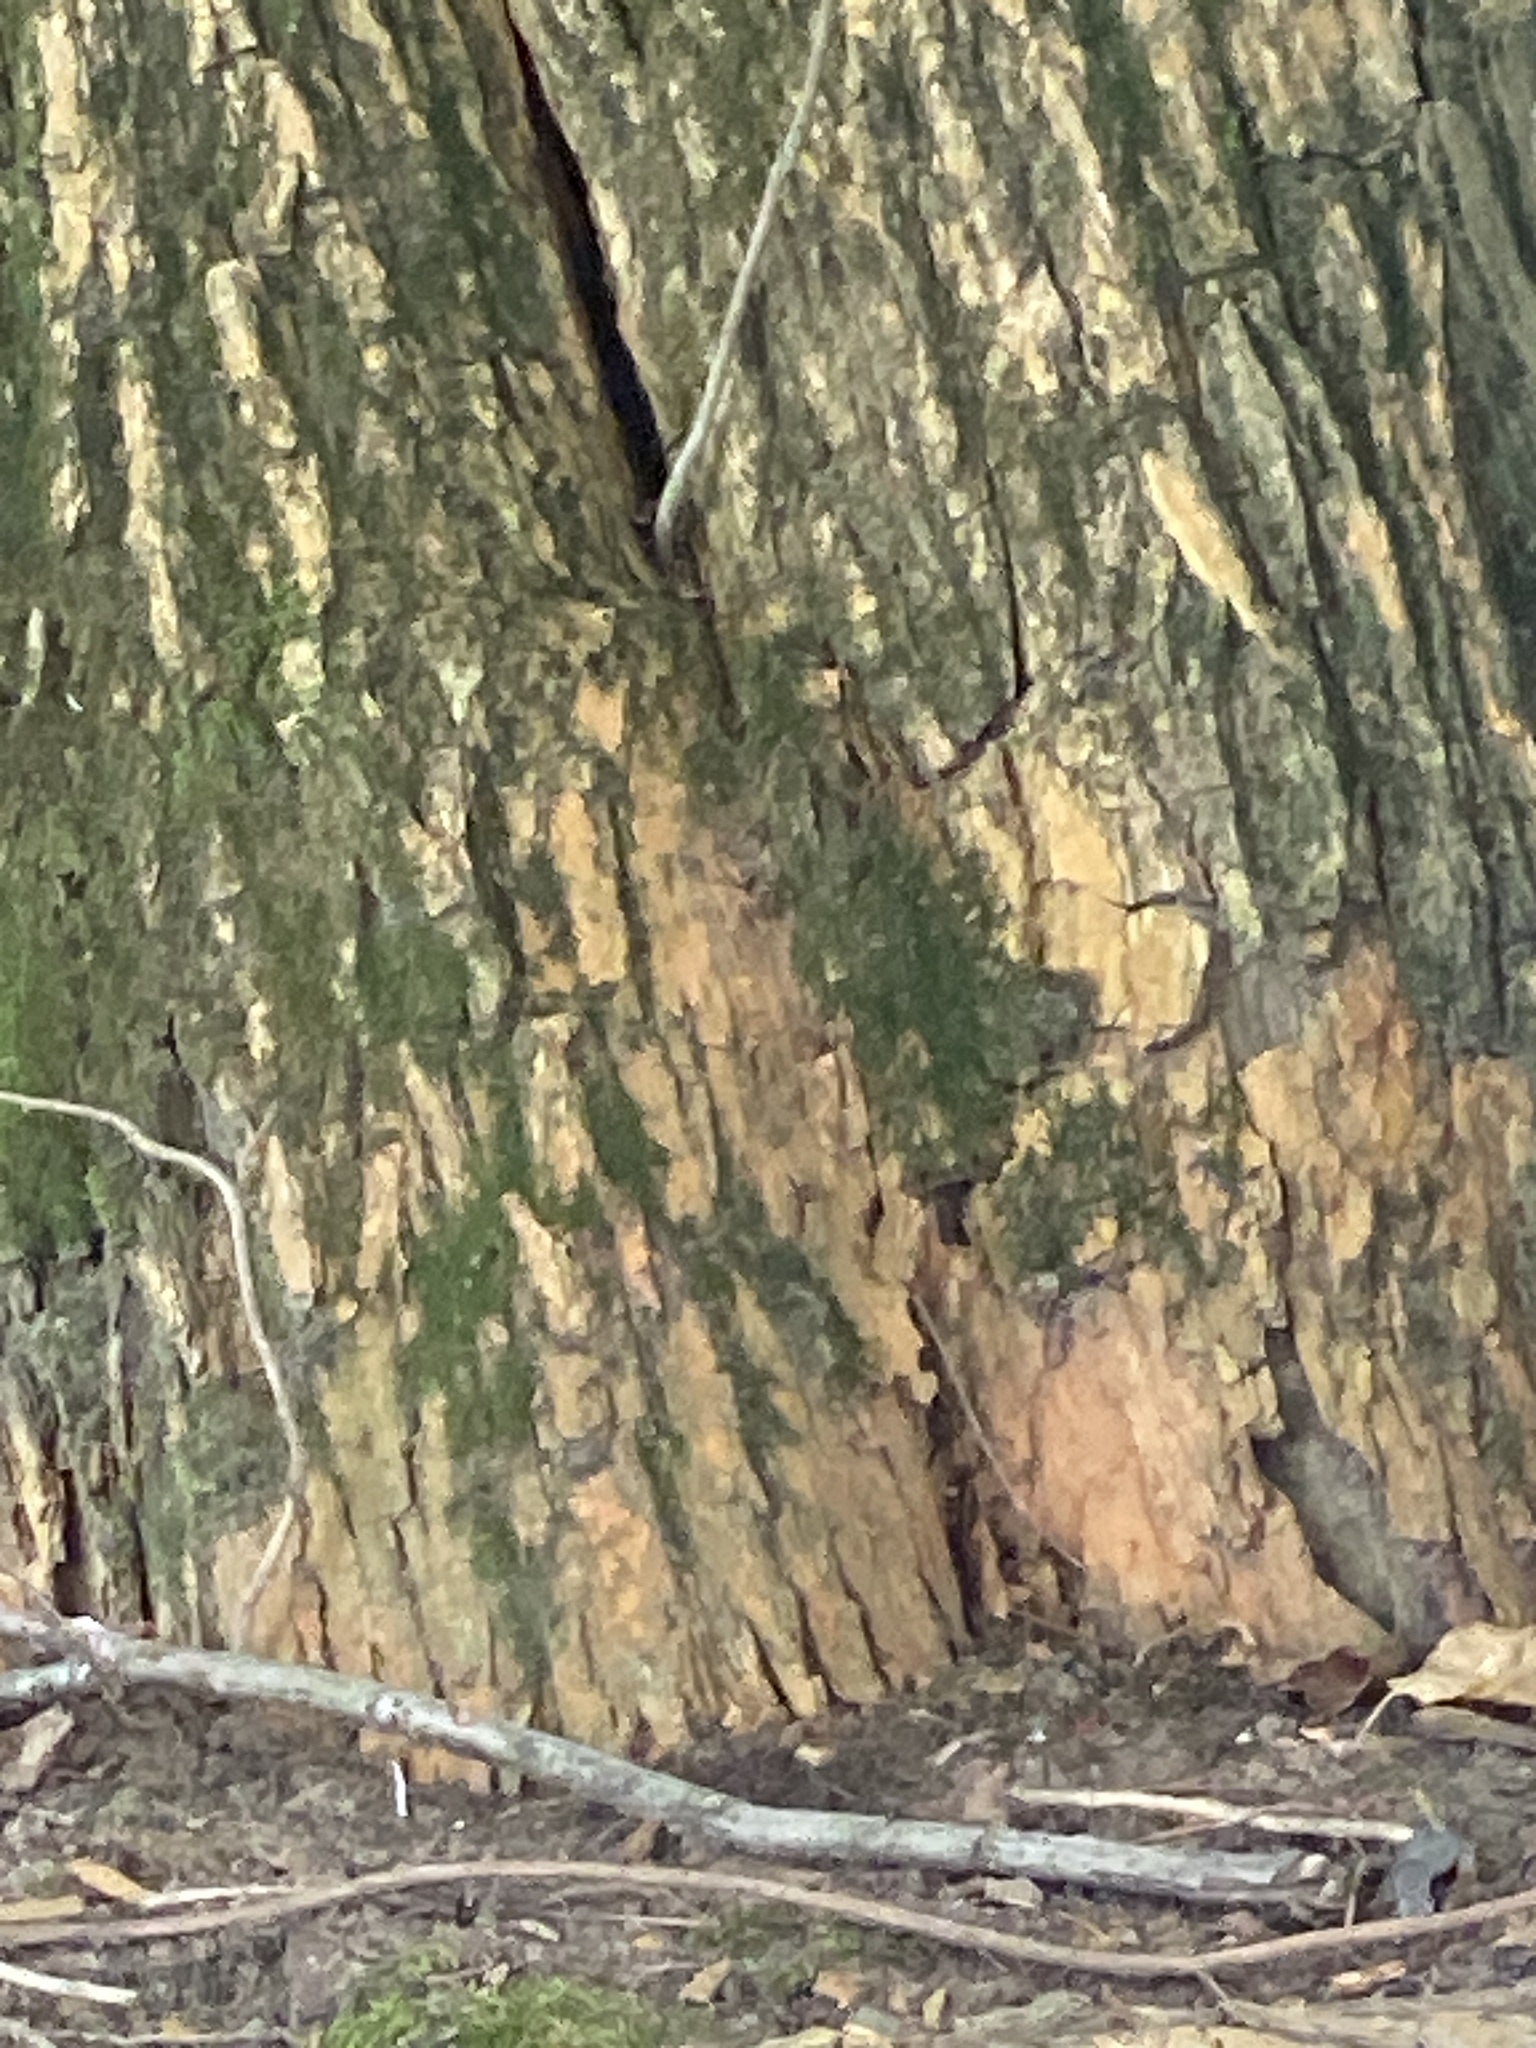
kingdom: Plantae
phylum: Tracheophyta
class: Magnoliopsida
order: Rosales
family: Moraceae
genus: Maclura
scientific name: Maclura pomifera
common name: Osage-orange
